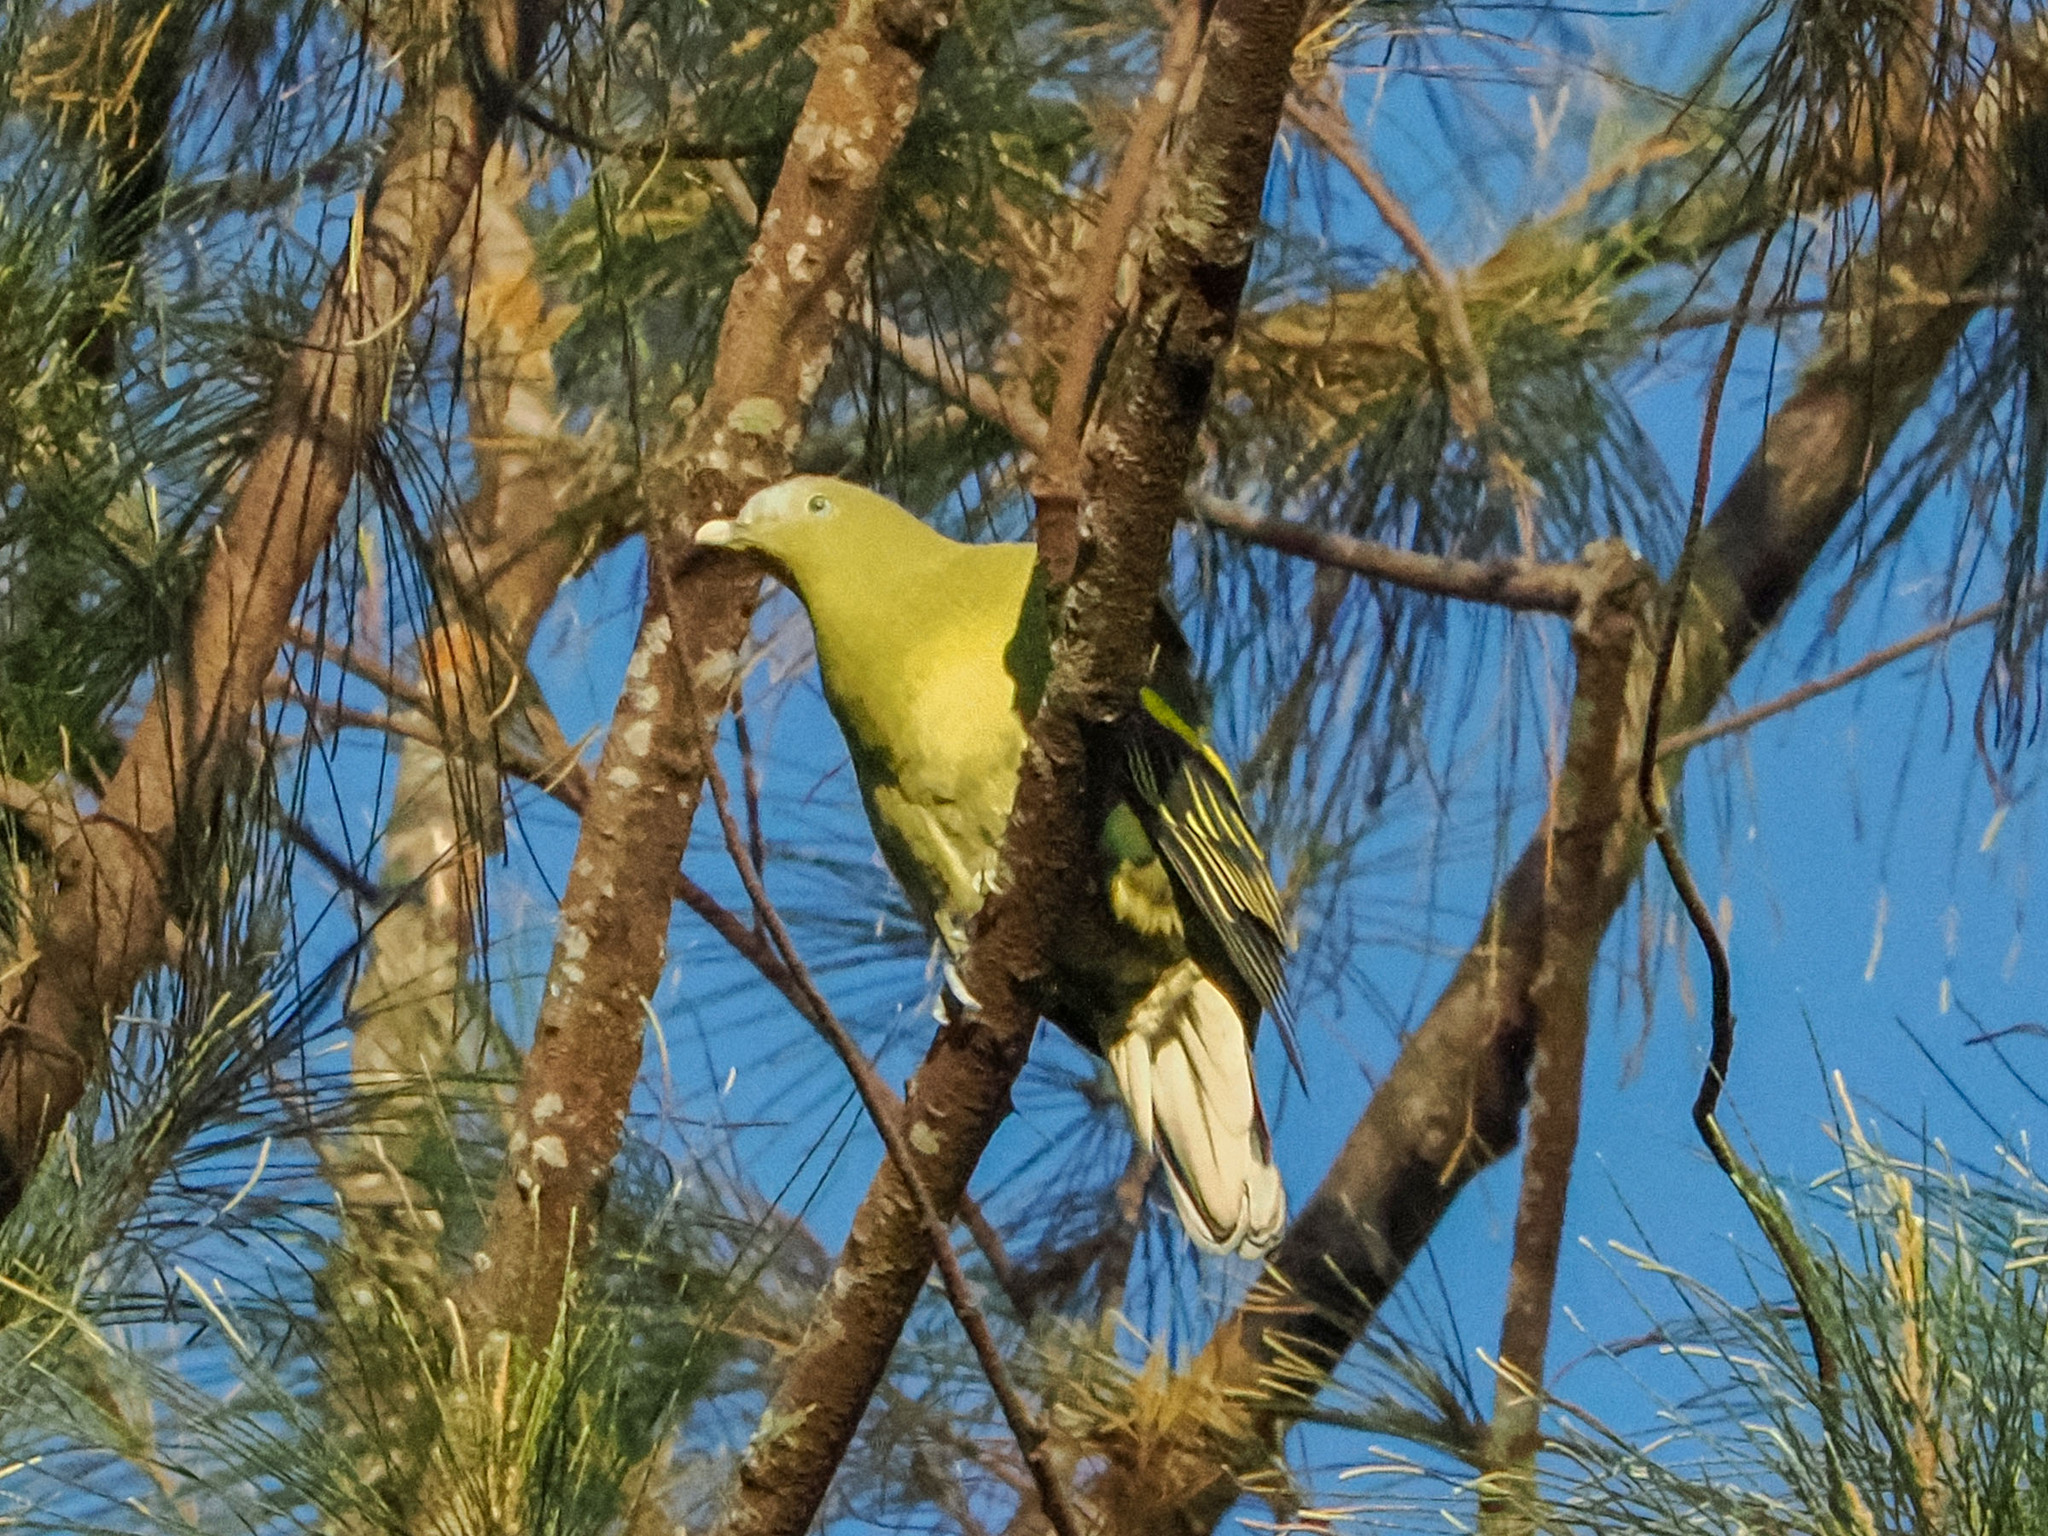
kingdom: Animalia
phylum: Chordata
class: Aves
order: Columbiformes
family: Columbidae
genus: Treron
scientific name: Treron axillaris
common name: Philippine green pigeon
